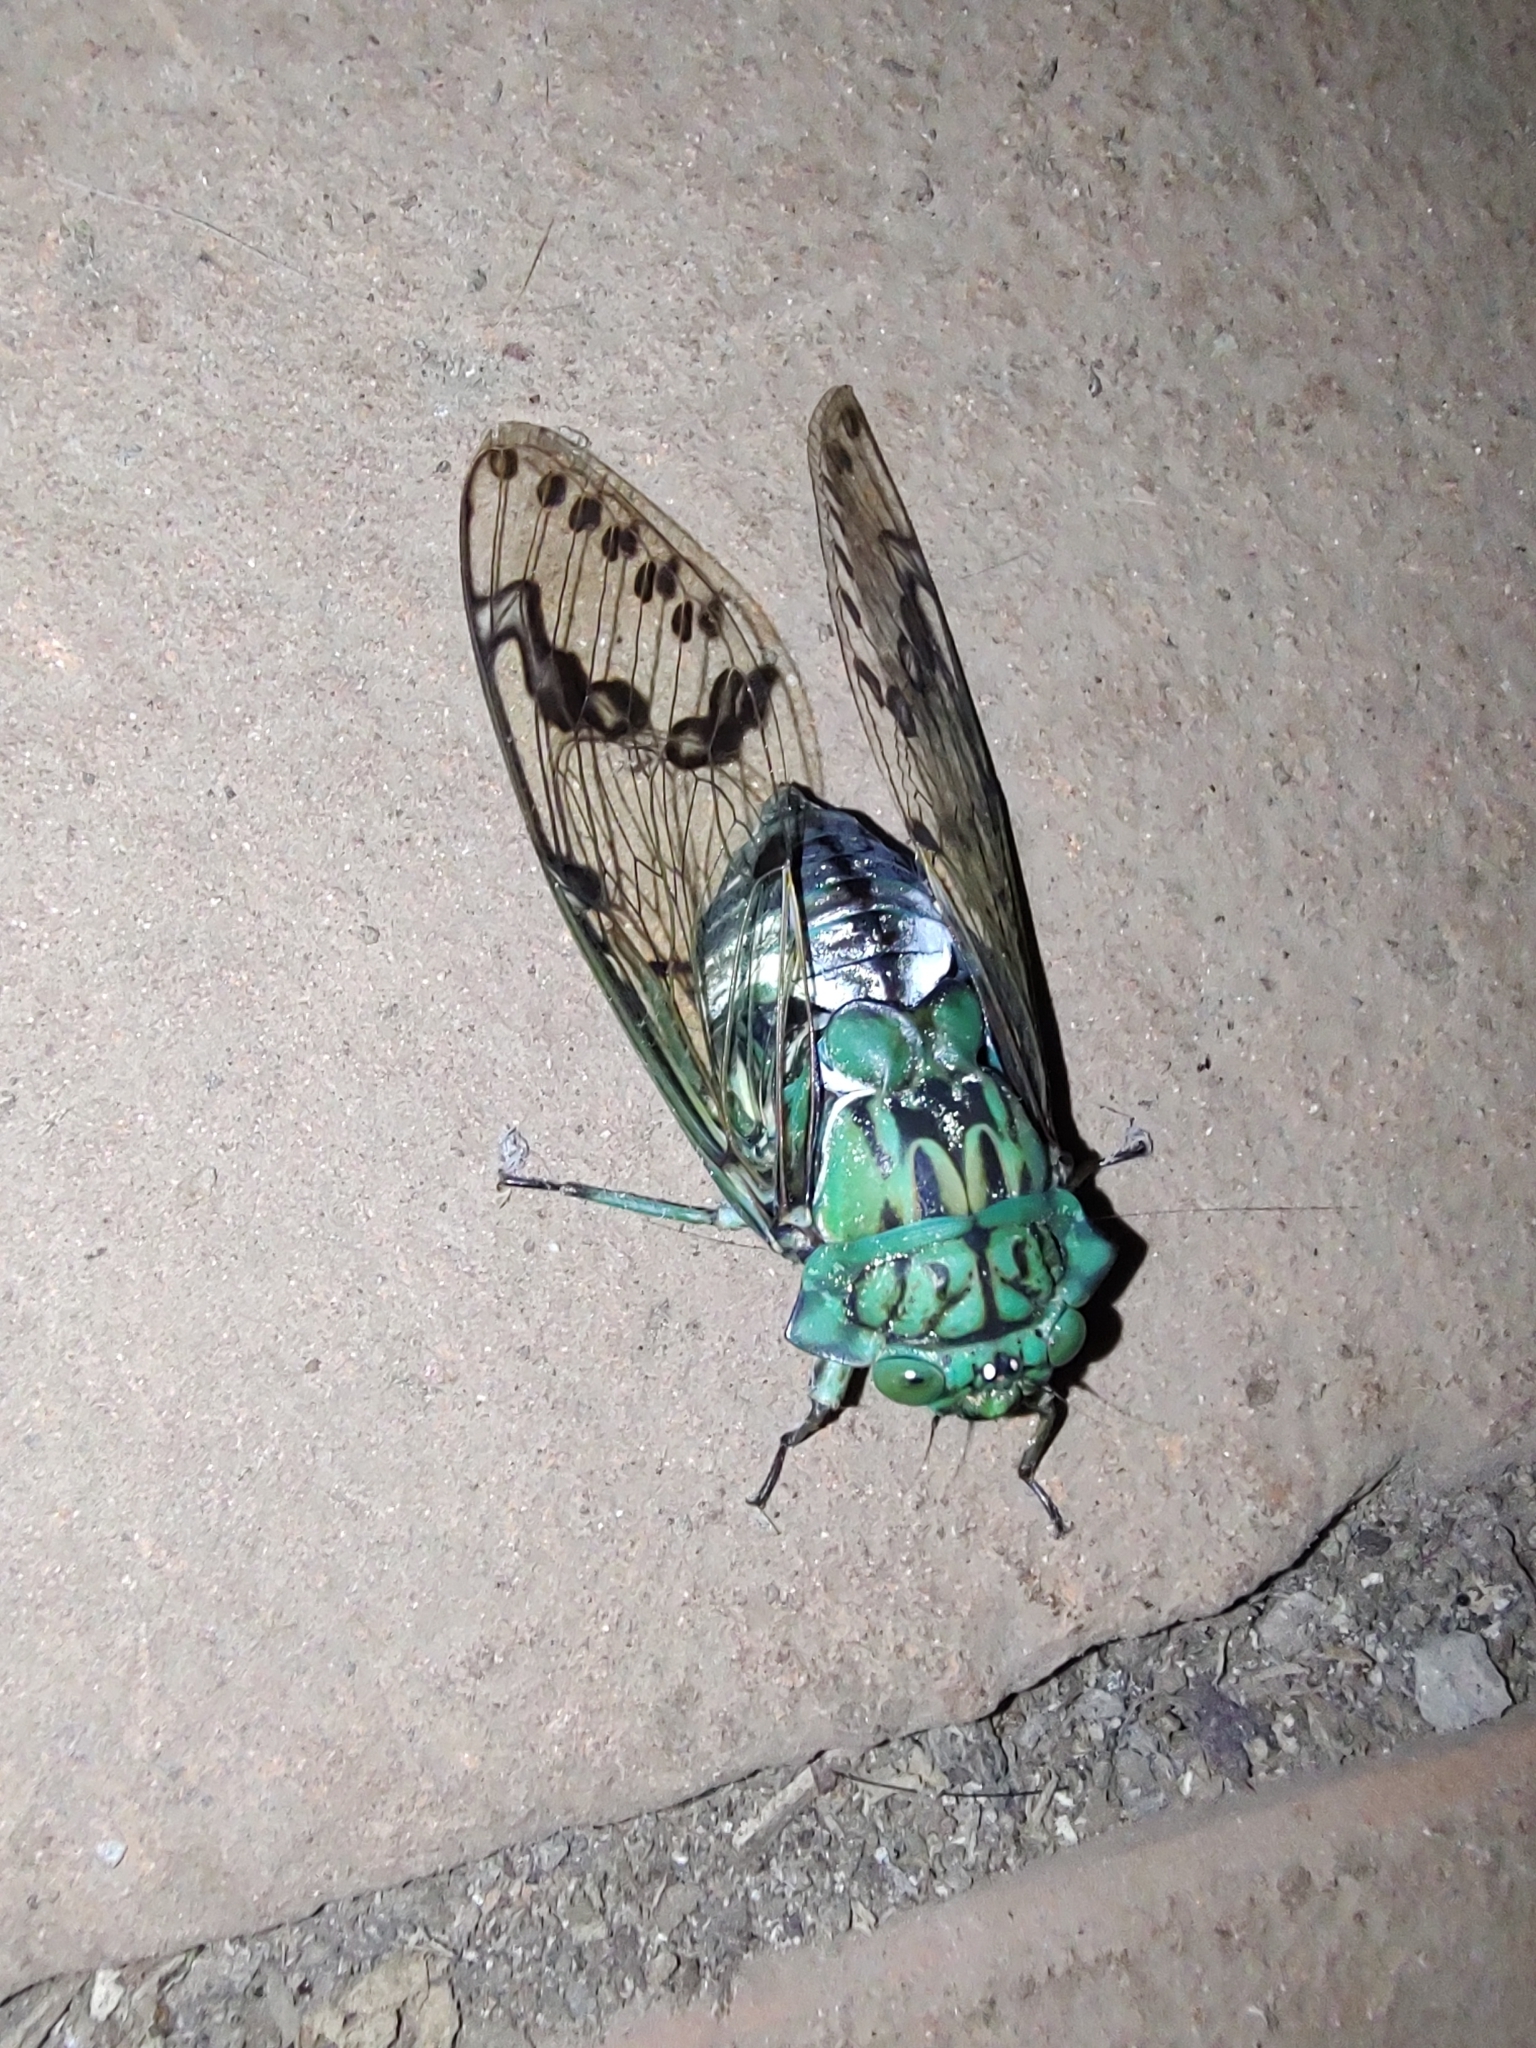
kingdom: Animalia
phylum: Arthropoda
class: Insecta
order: Hemiptera
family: Cicadidae
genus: Zammara
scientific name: Zammara tympanum
